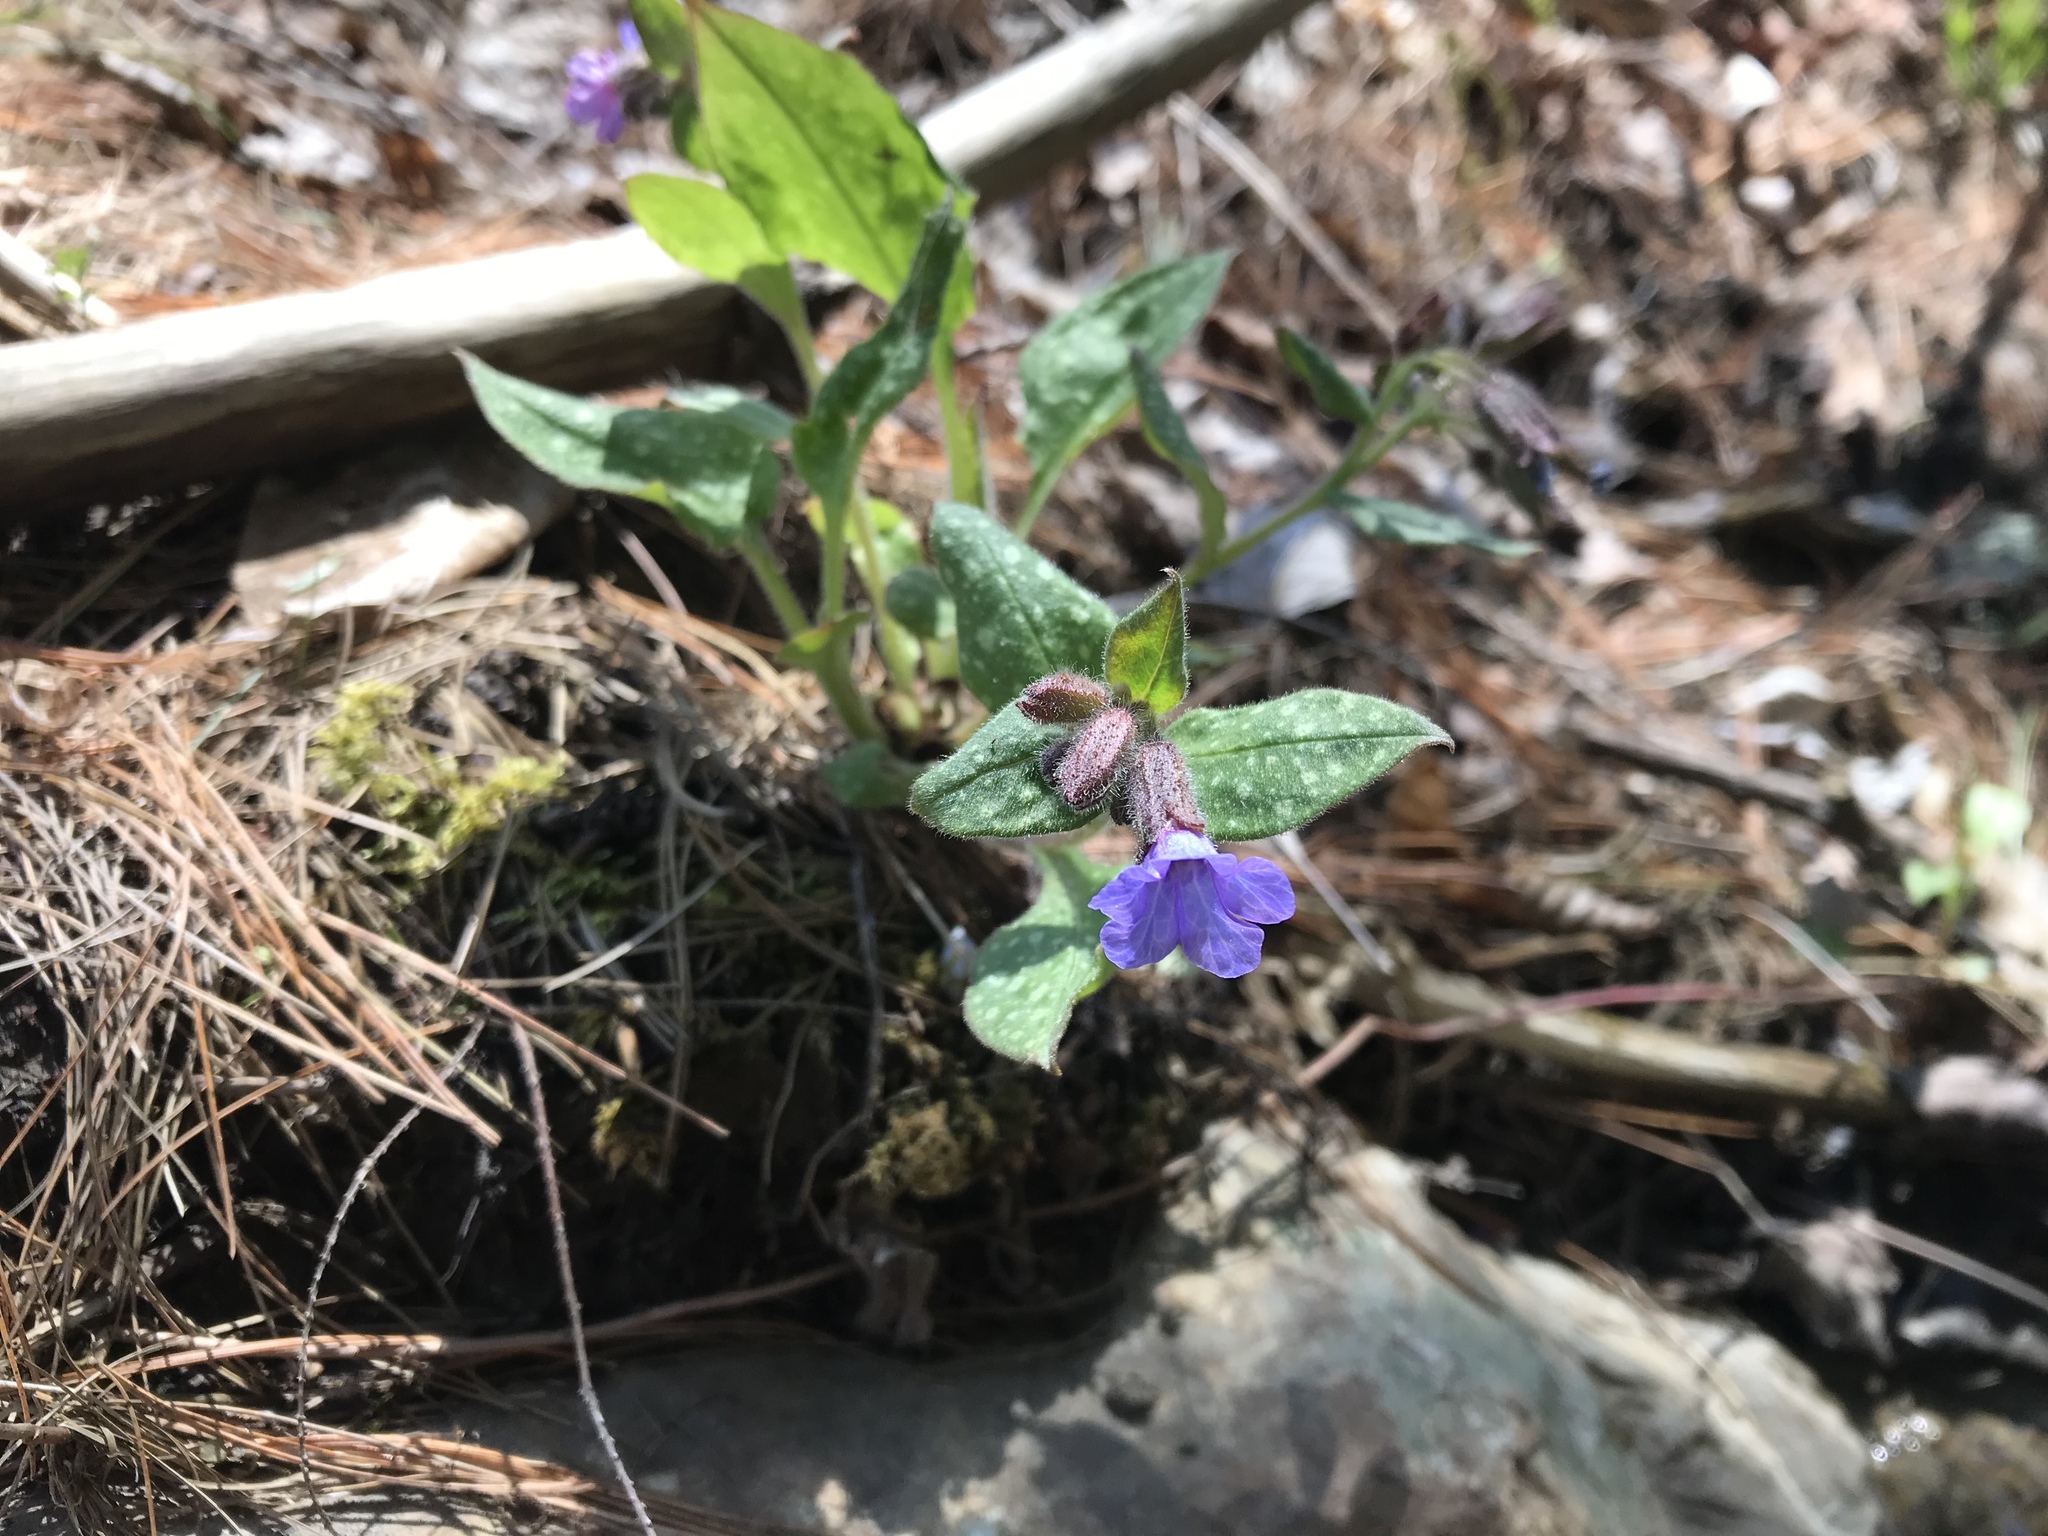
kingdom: Plantae
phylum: Tracheophyta
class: Magnoliopsida
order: Boraginales
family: Boraginaceae
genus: Pulmonaria
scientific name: Pulmonaria officinalis
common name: Lungwort
